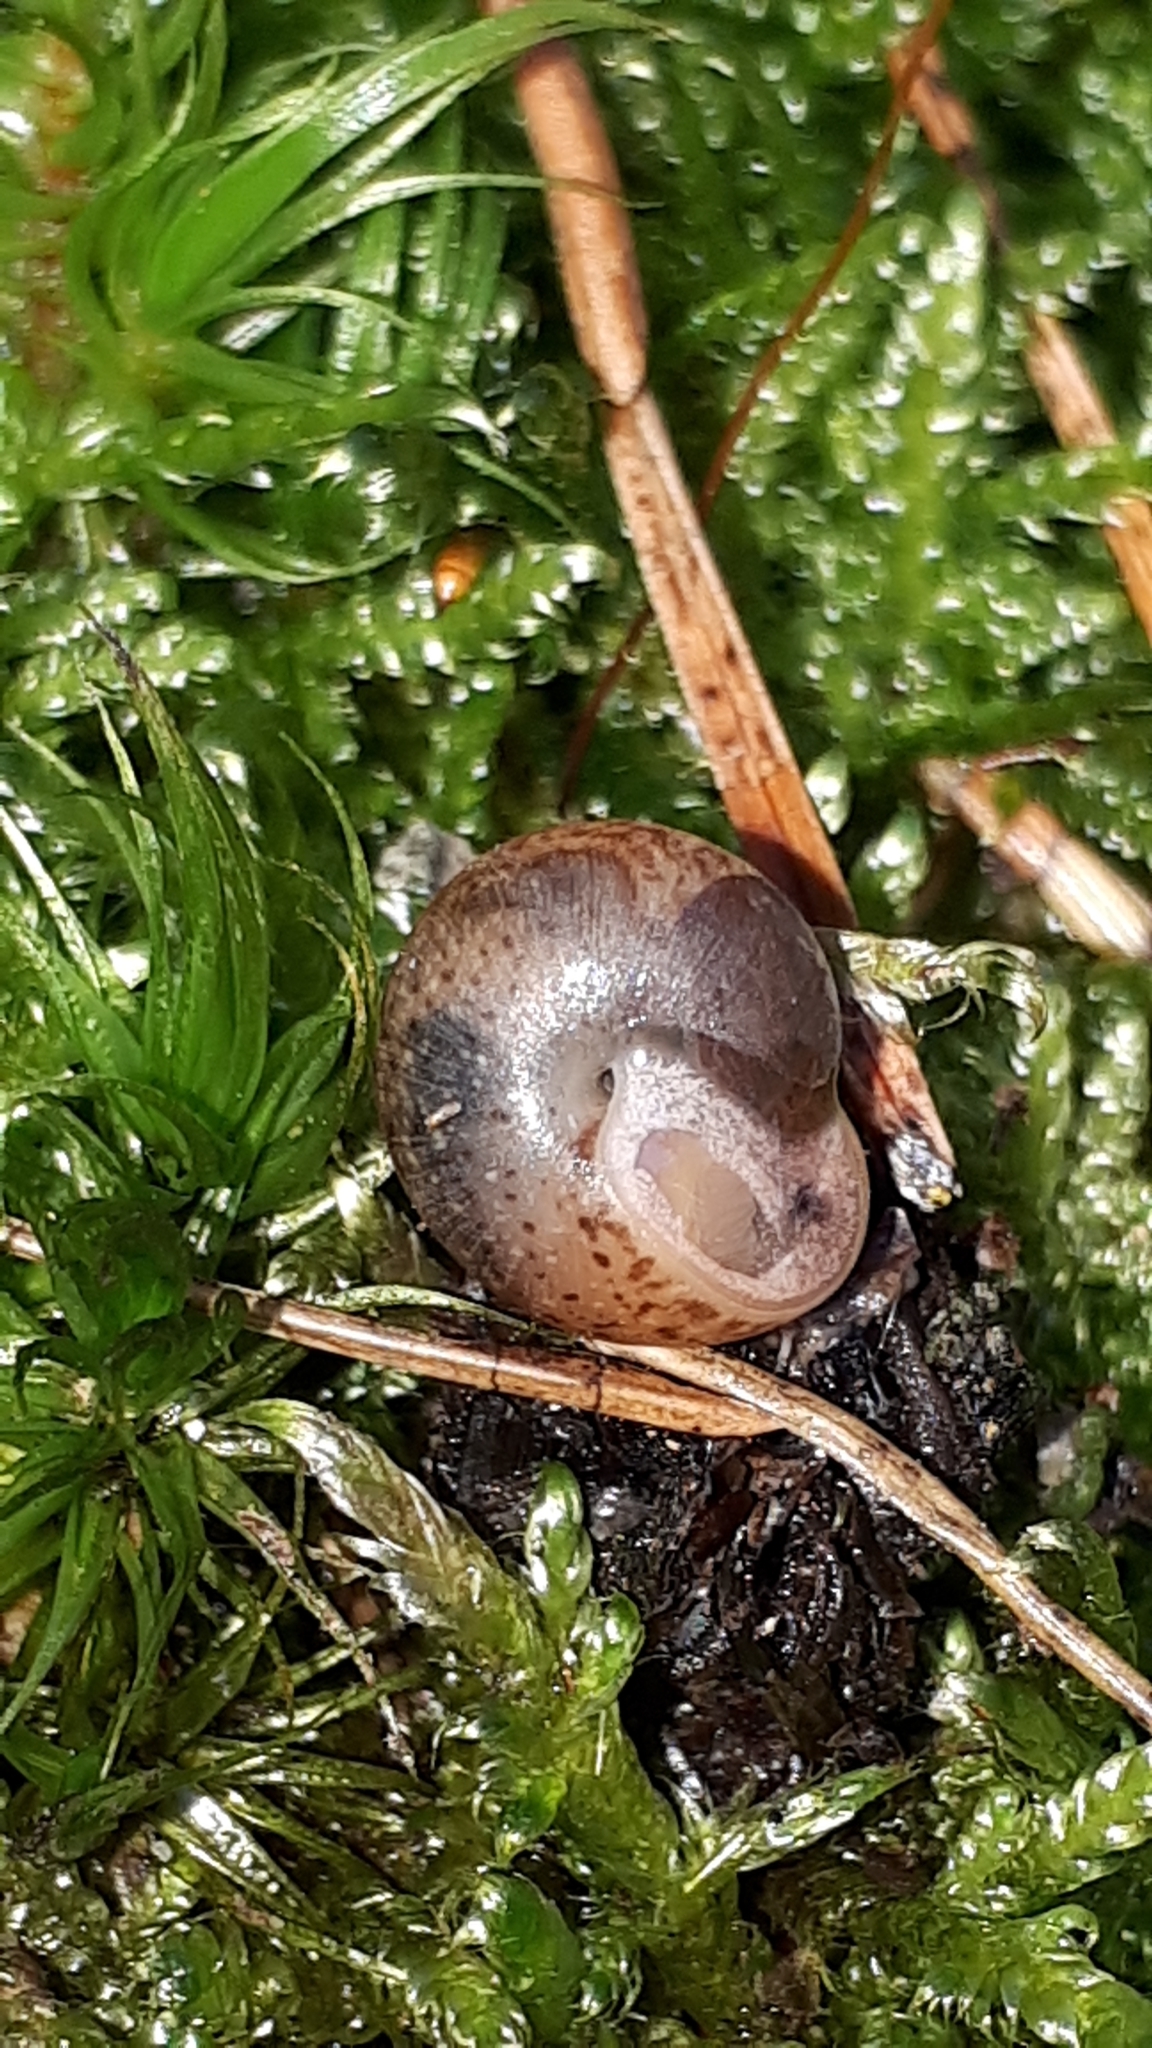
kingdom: Animalia
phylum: Mollusca
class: Gastropoda
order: Stylommatophora
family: Hygromiidae
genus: Monachoides
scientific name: Monachoides incarnatus
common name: Incarnate snail
